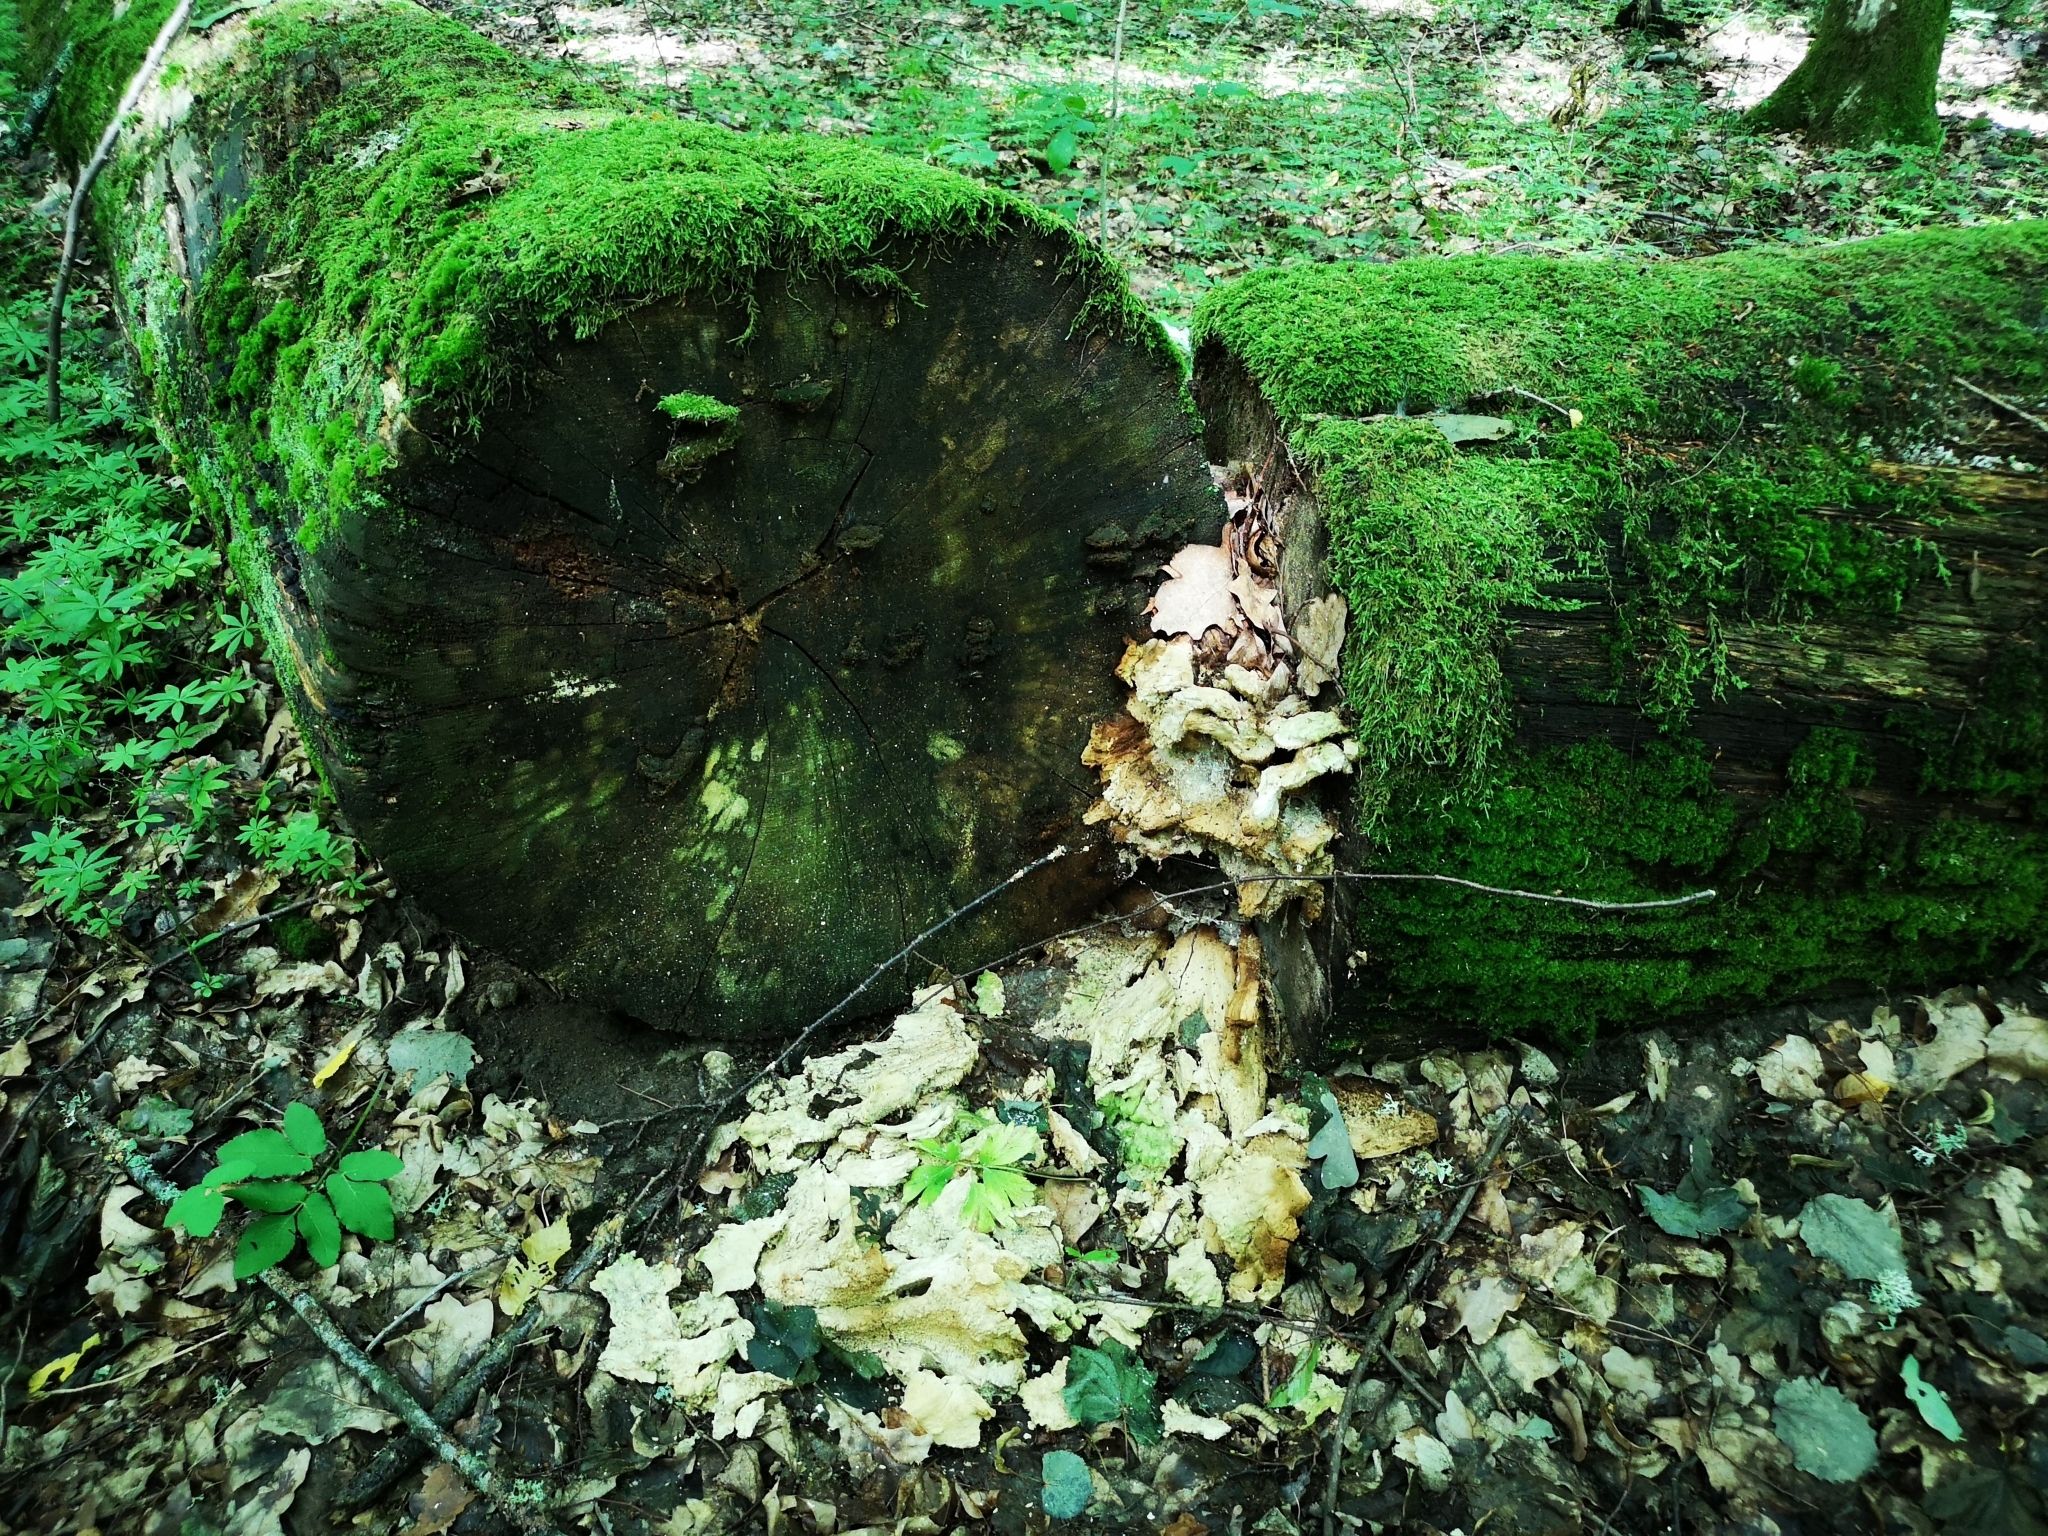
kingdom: Fungi
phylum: Basidiomycota
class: Agaricomycetes
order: Polyporales
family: Laetiporaceae
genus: Laetiporus
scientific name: Laetiporus sulphureus
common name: Chicken of the woods
